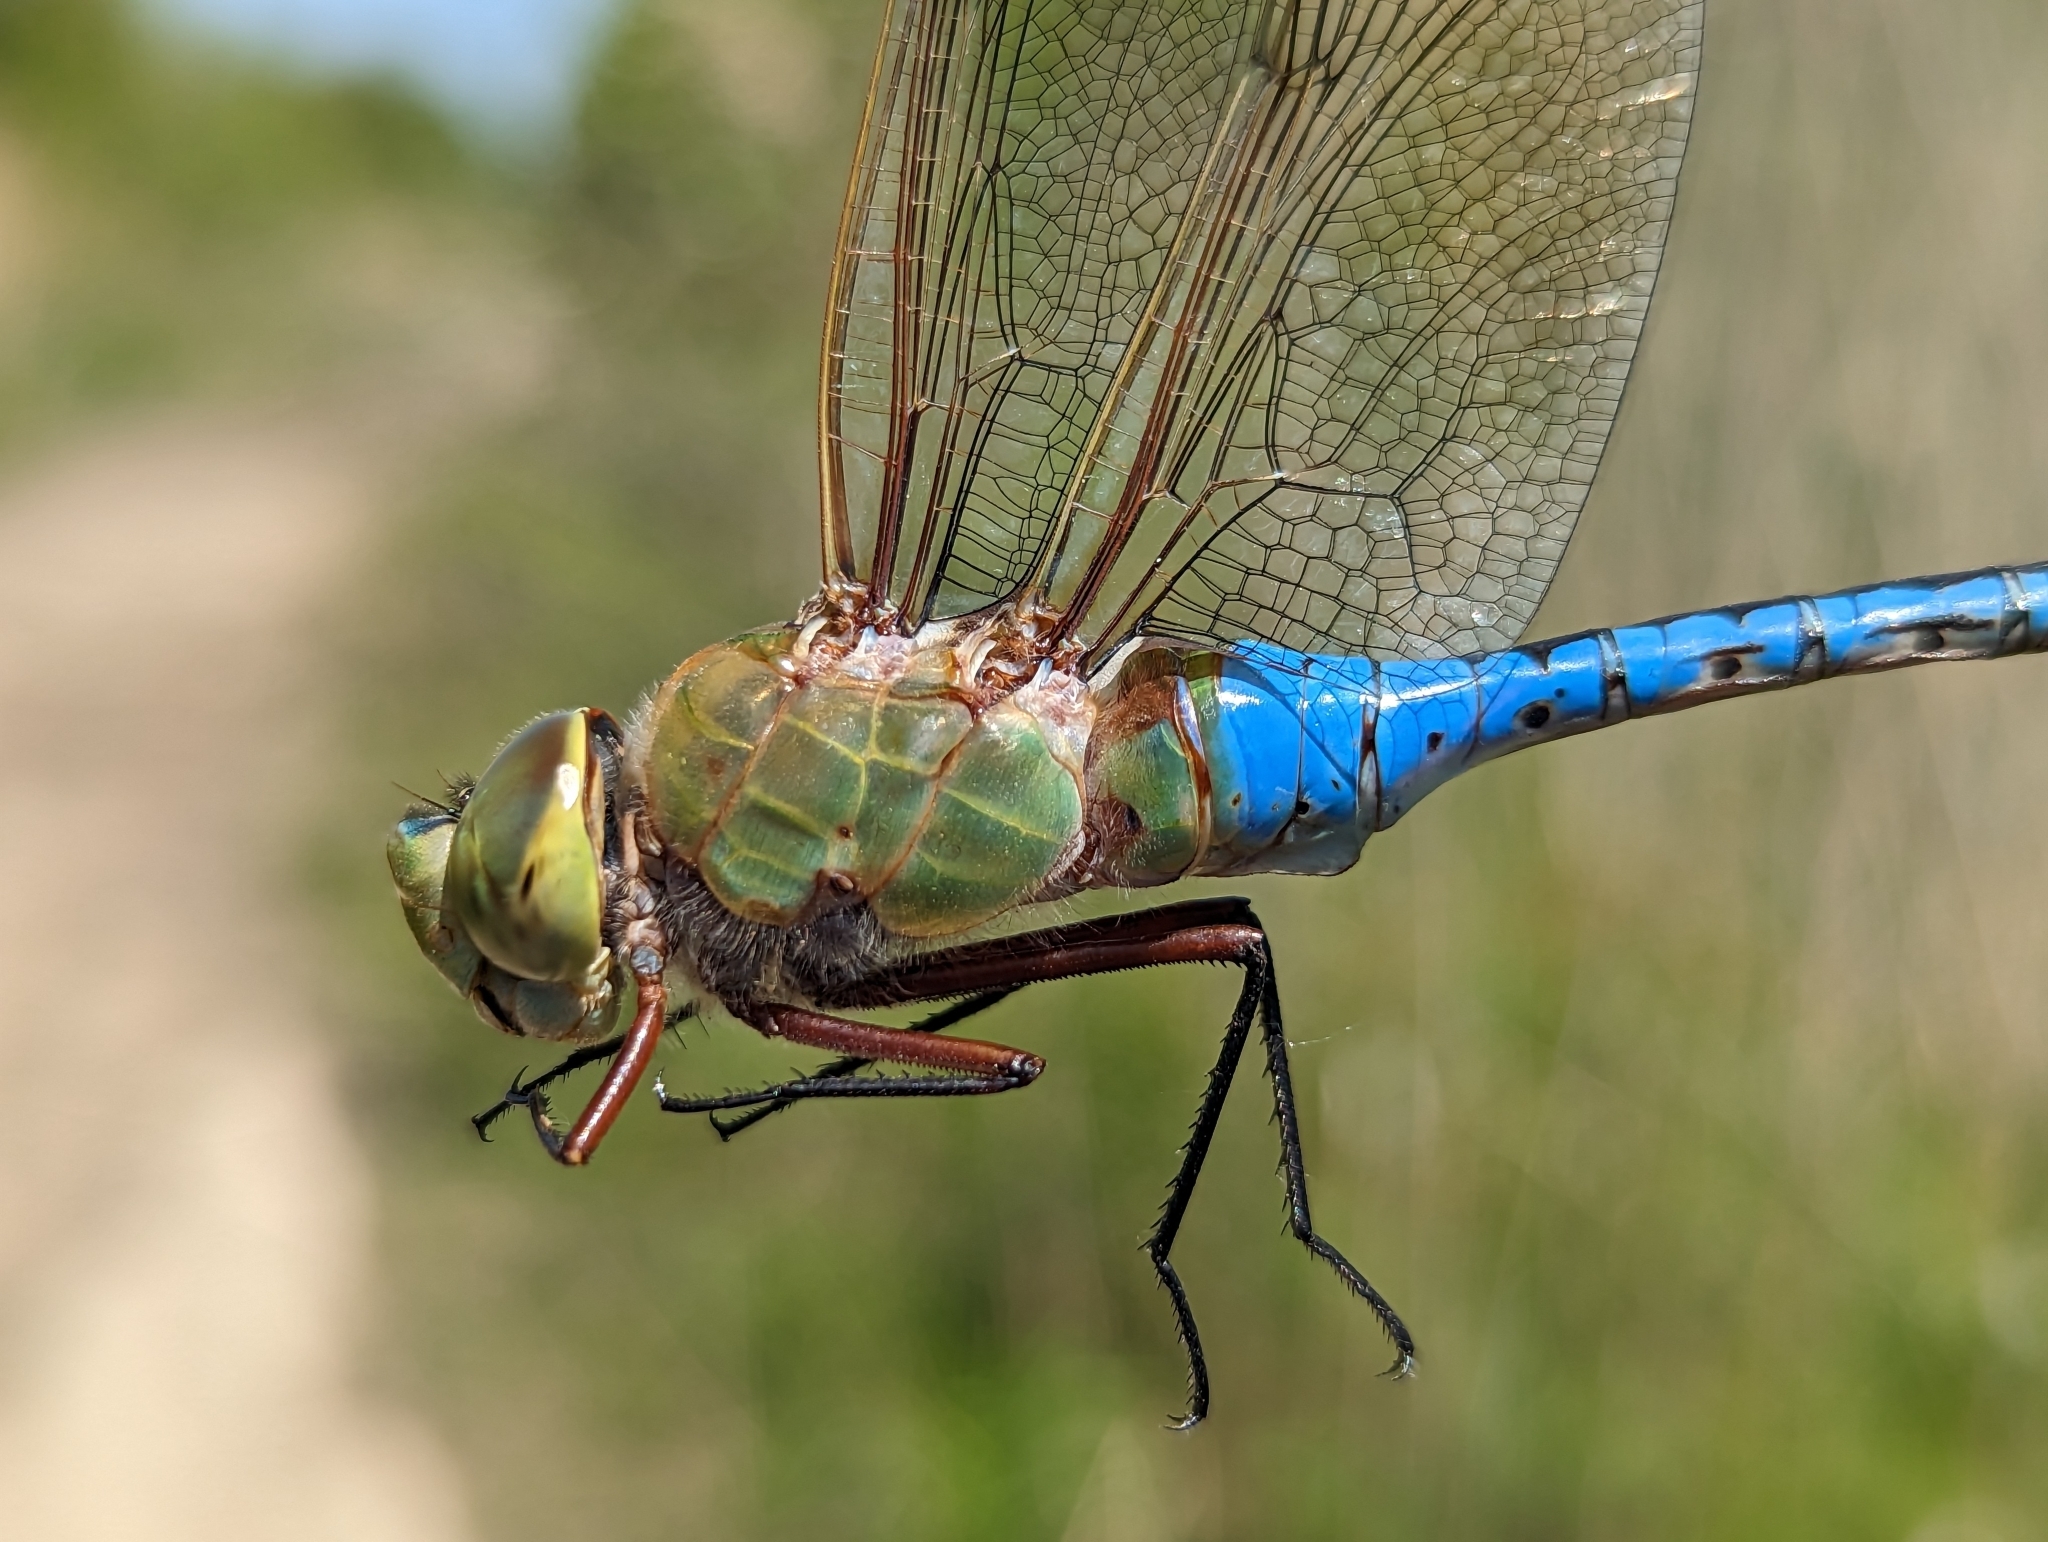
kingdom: Animalia
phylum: Arthropoda
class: Insecta
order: Odonata
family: Aeshnidae
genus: Anax
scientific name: Anax junius
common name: Common green darner
